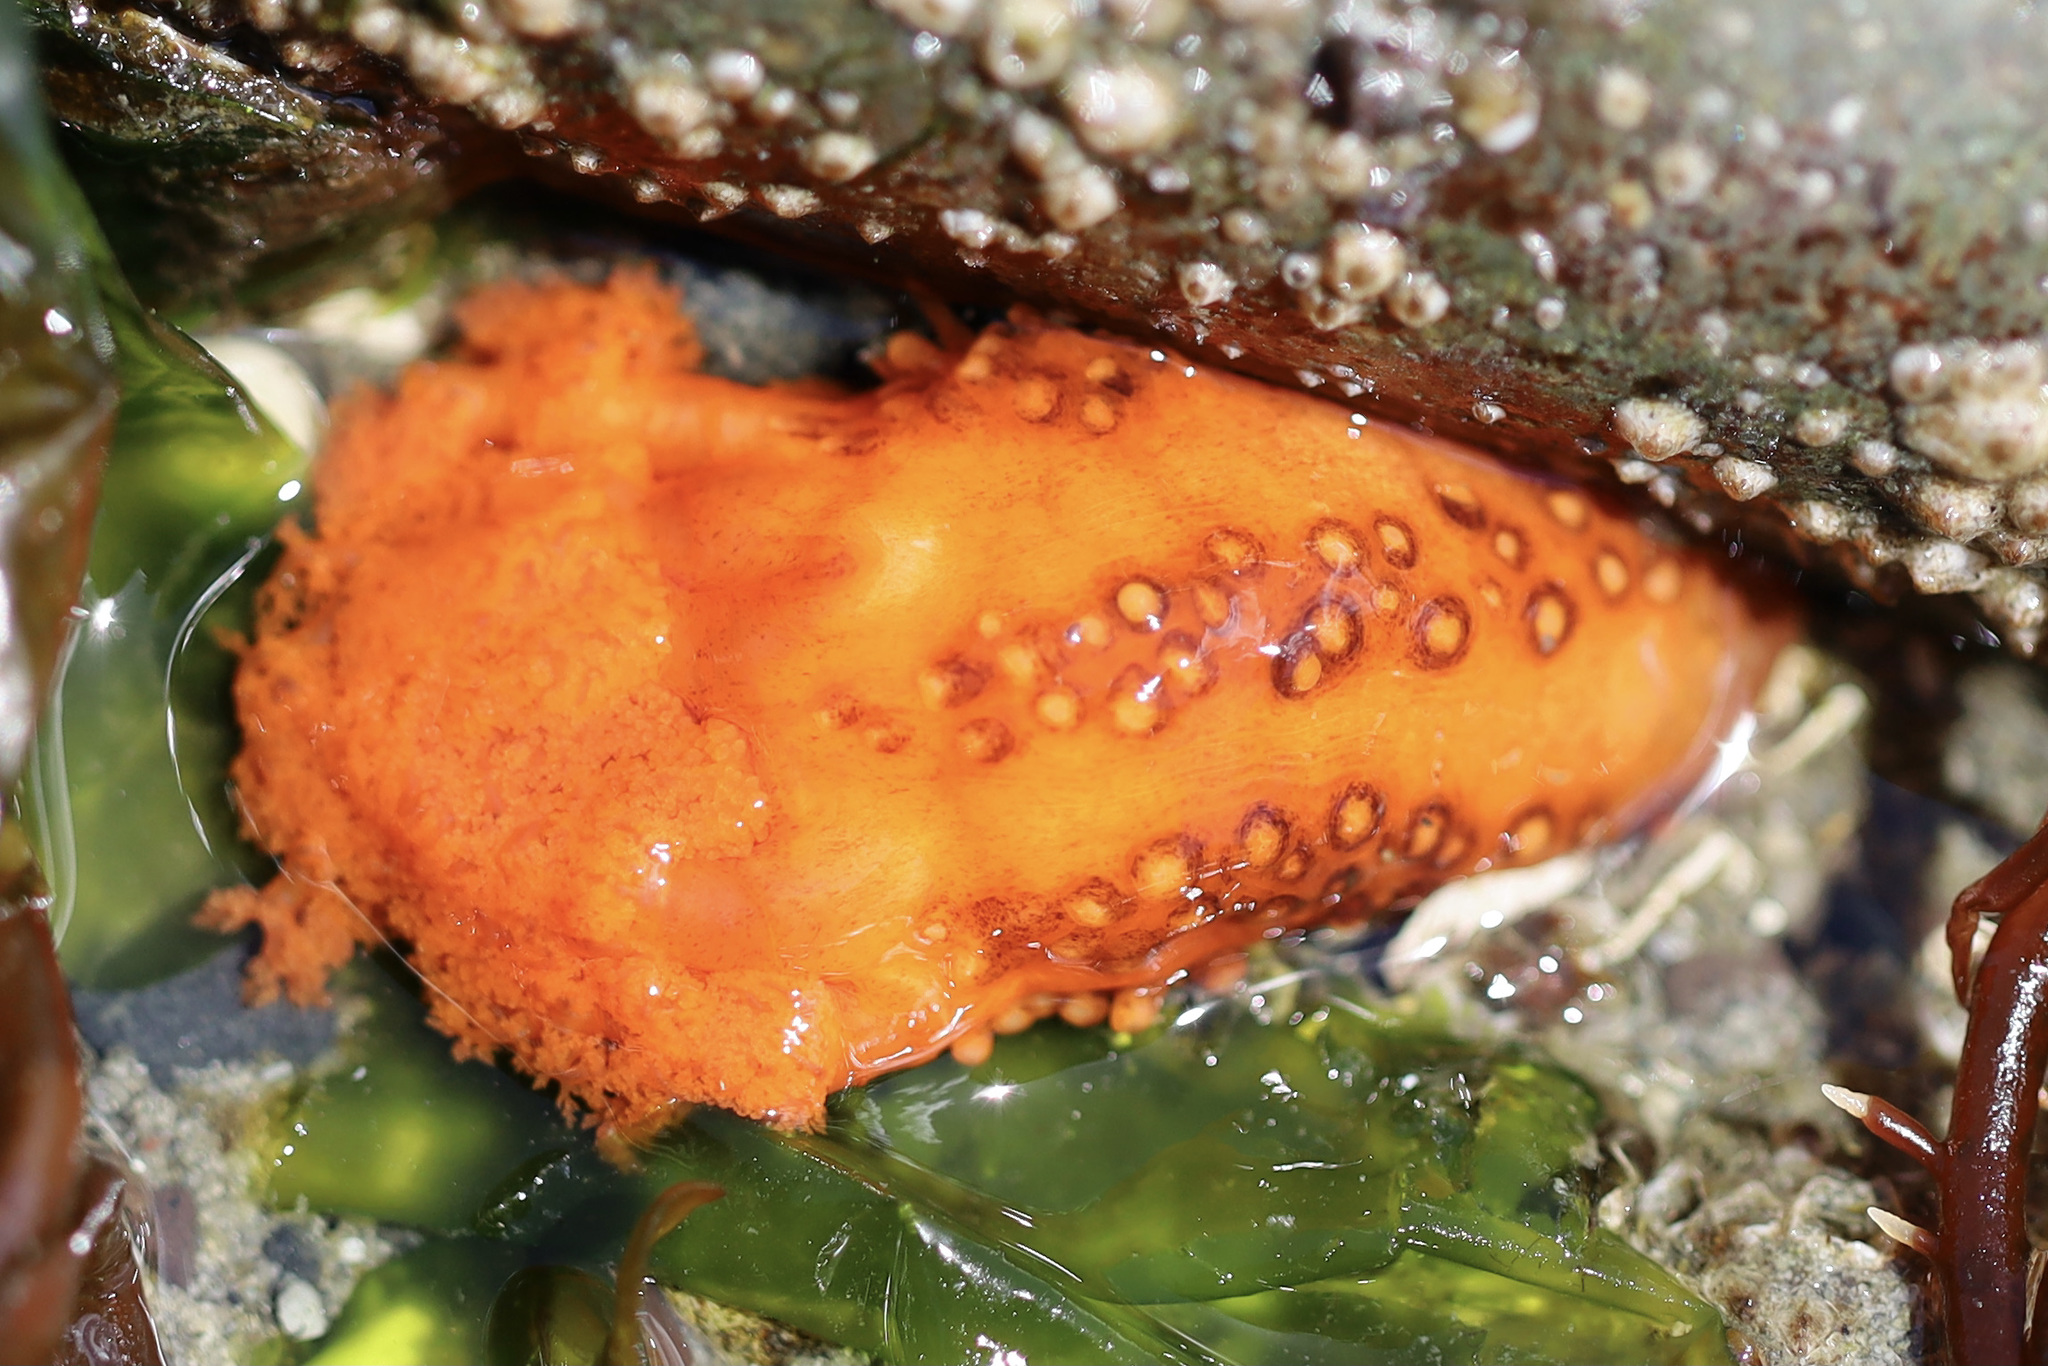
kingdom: Animalia
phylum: Echinodermata
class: Holothuroidea
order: Dendrochirotida
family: Cucumariidae
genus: Cucumaria
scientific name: Cucumaria miniata
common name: Orange sea cucumber
